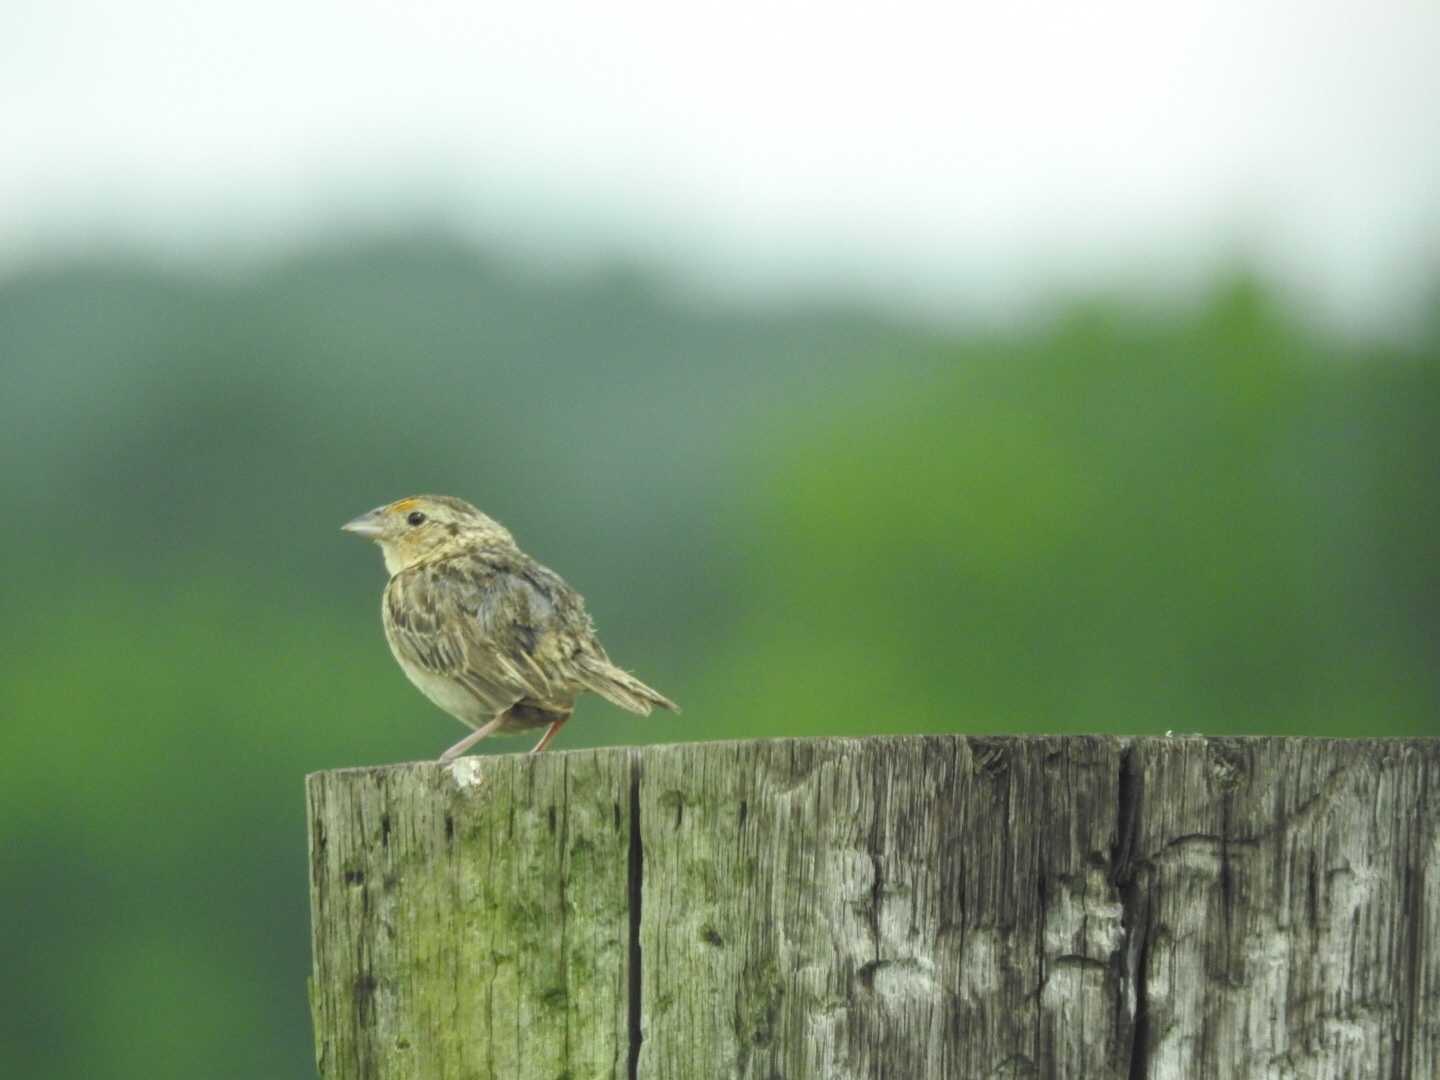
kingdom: Animalia
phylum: Chordata
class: Aves
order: Passeriformes
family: Passerellidae
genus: Ammodramus
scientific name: Ammodramus savannarum
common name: Grasshopper sparrow
